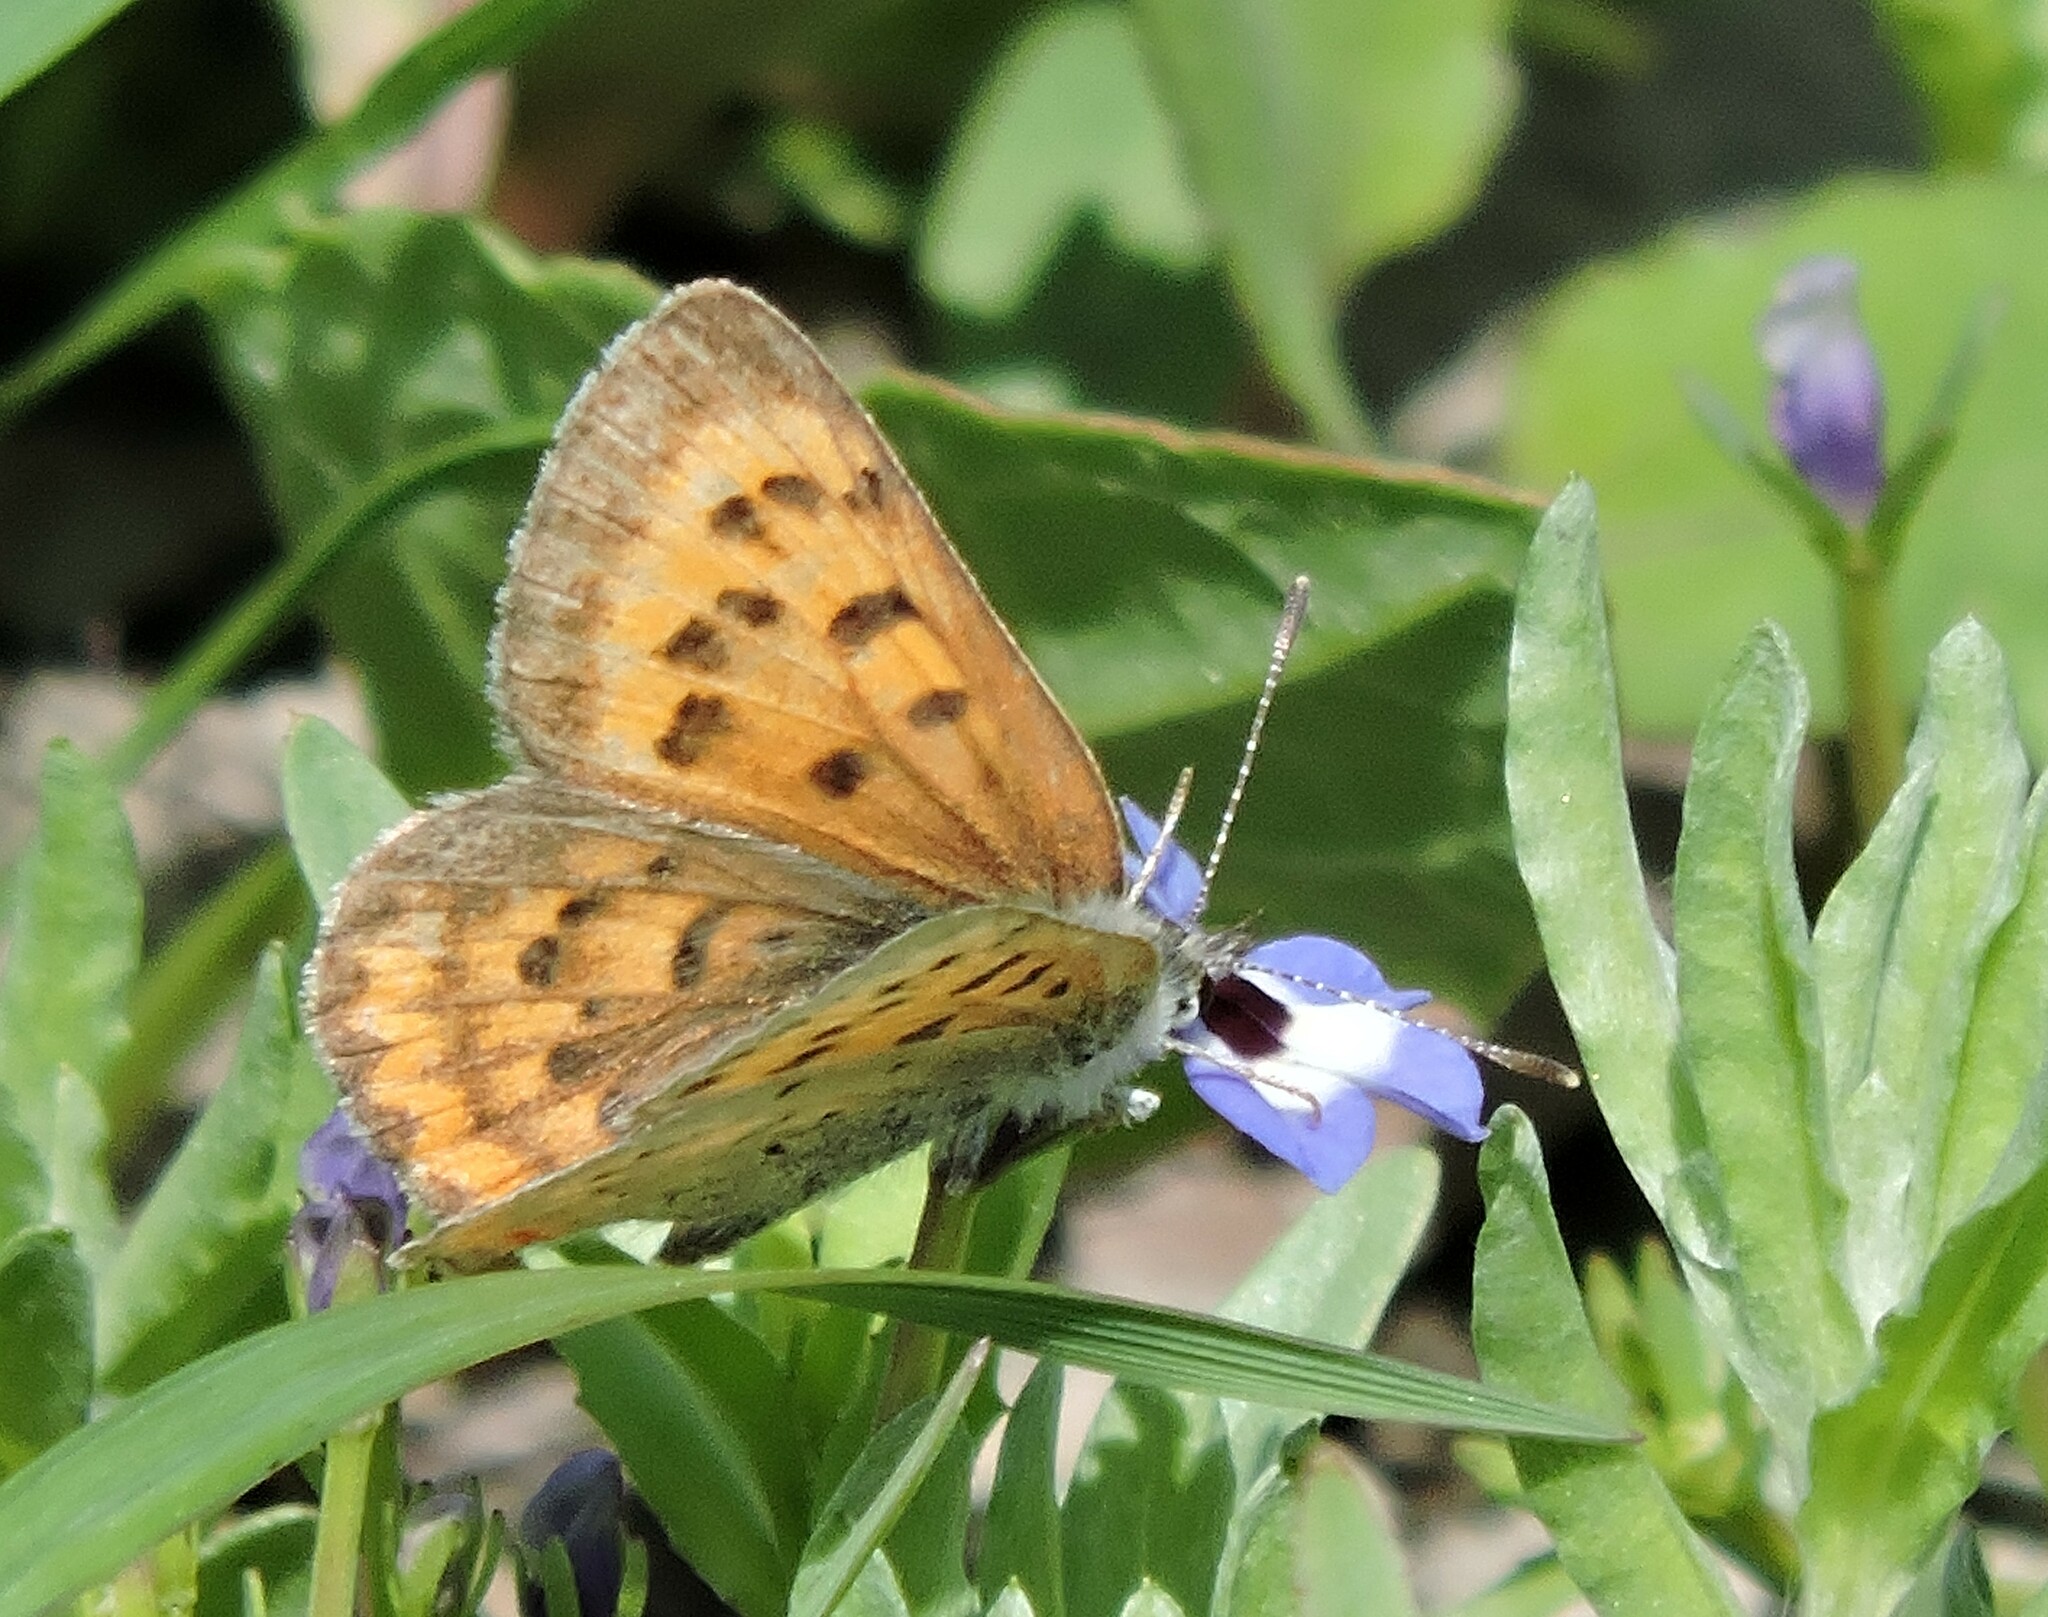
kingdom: Animalia
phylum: Arthropoda
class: Insecta
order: Lepidoptera
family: Lycaenidae
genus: Tharsalea
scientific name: Tharsalea helloides
